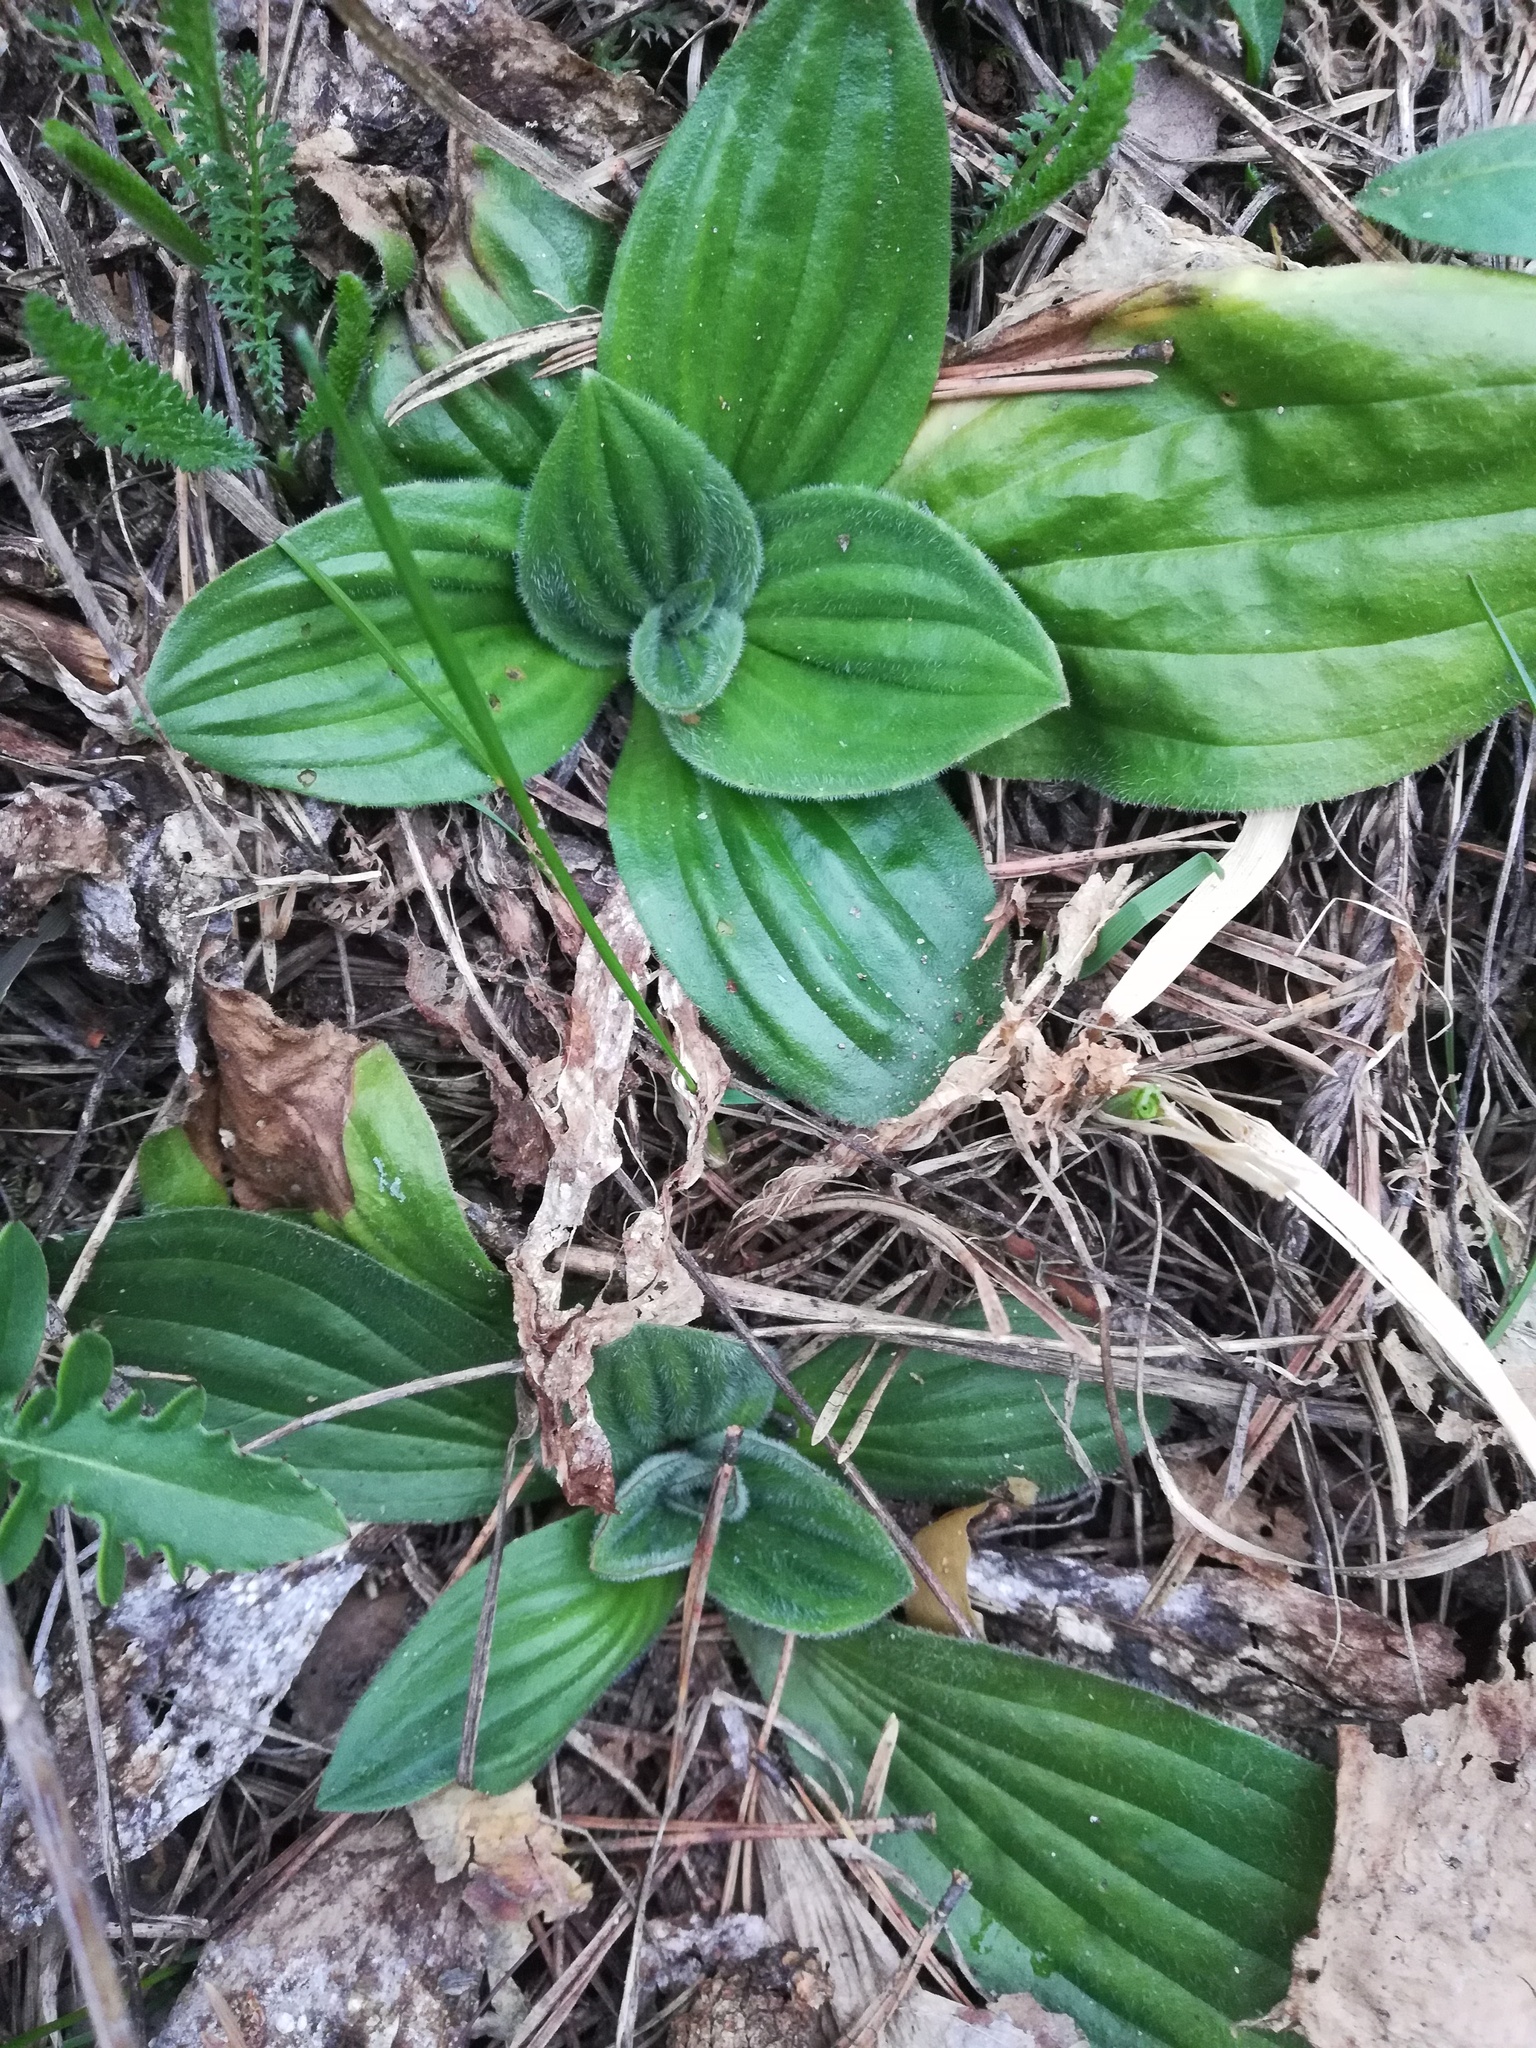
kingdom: Plantae
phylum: Tracheophyta
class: Magnoliopsida
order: Lamiales
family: Plantaginaceae
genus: Plantago
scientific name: Plantago media
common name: Hoary plantain
